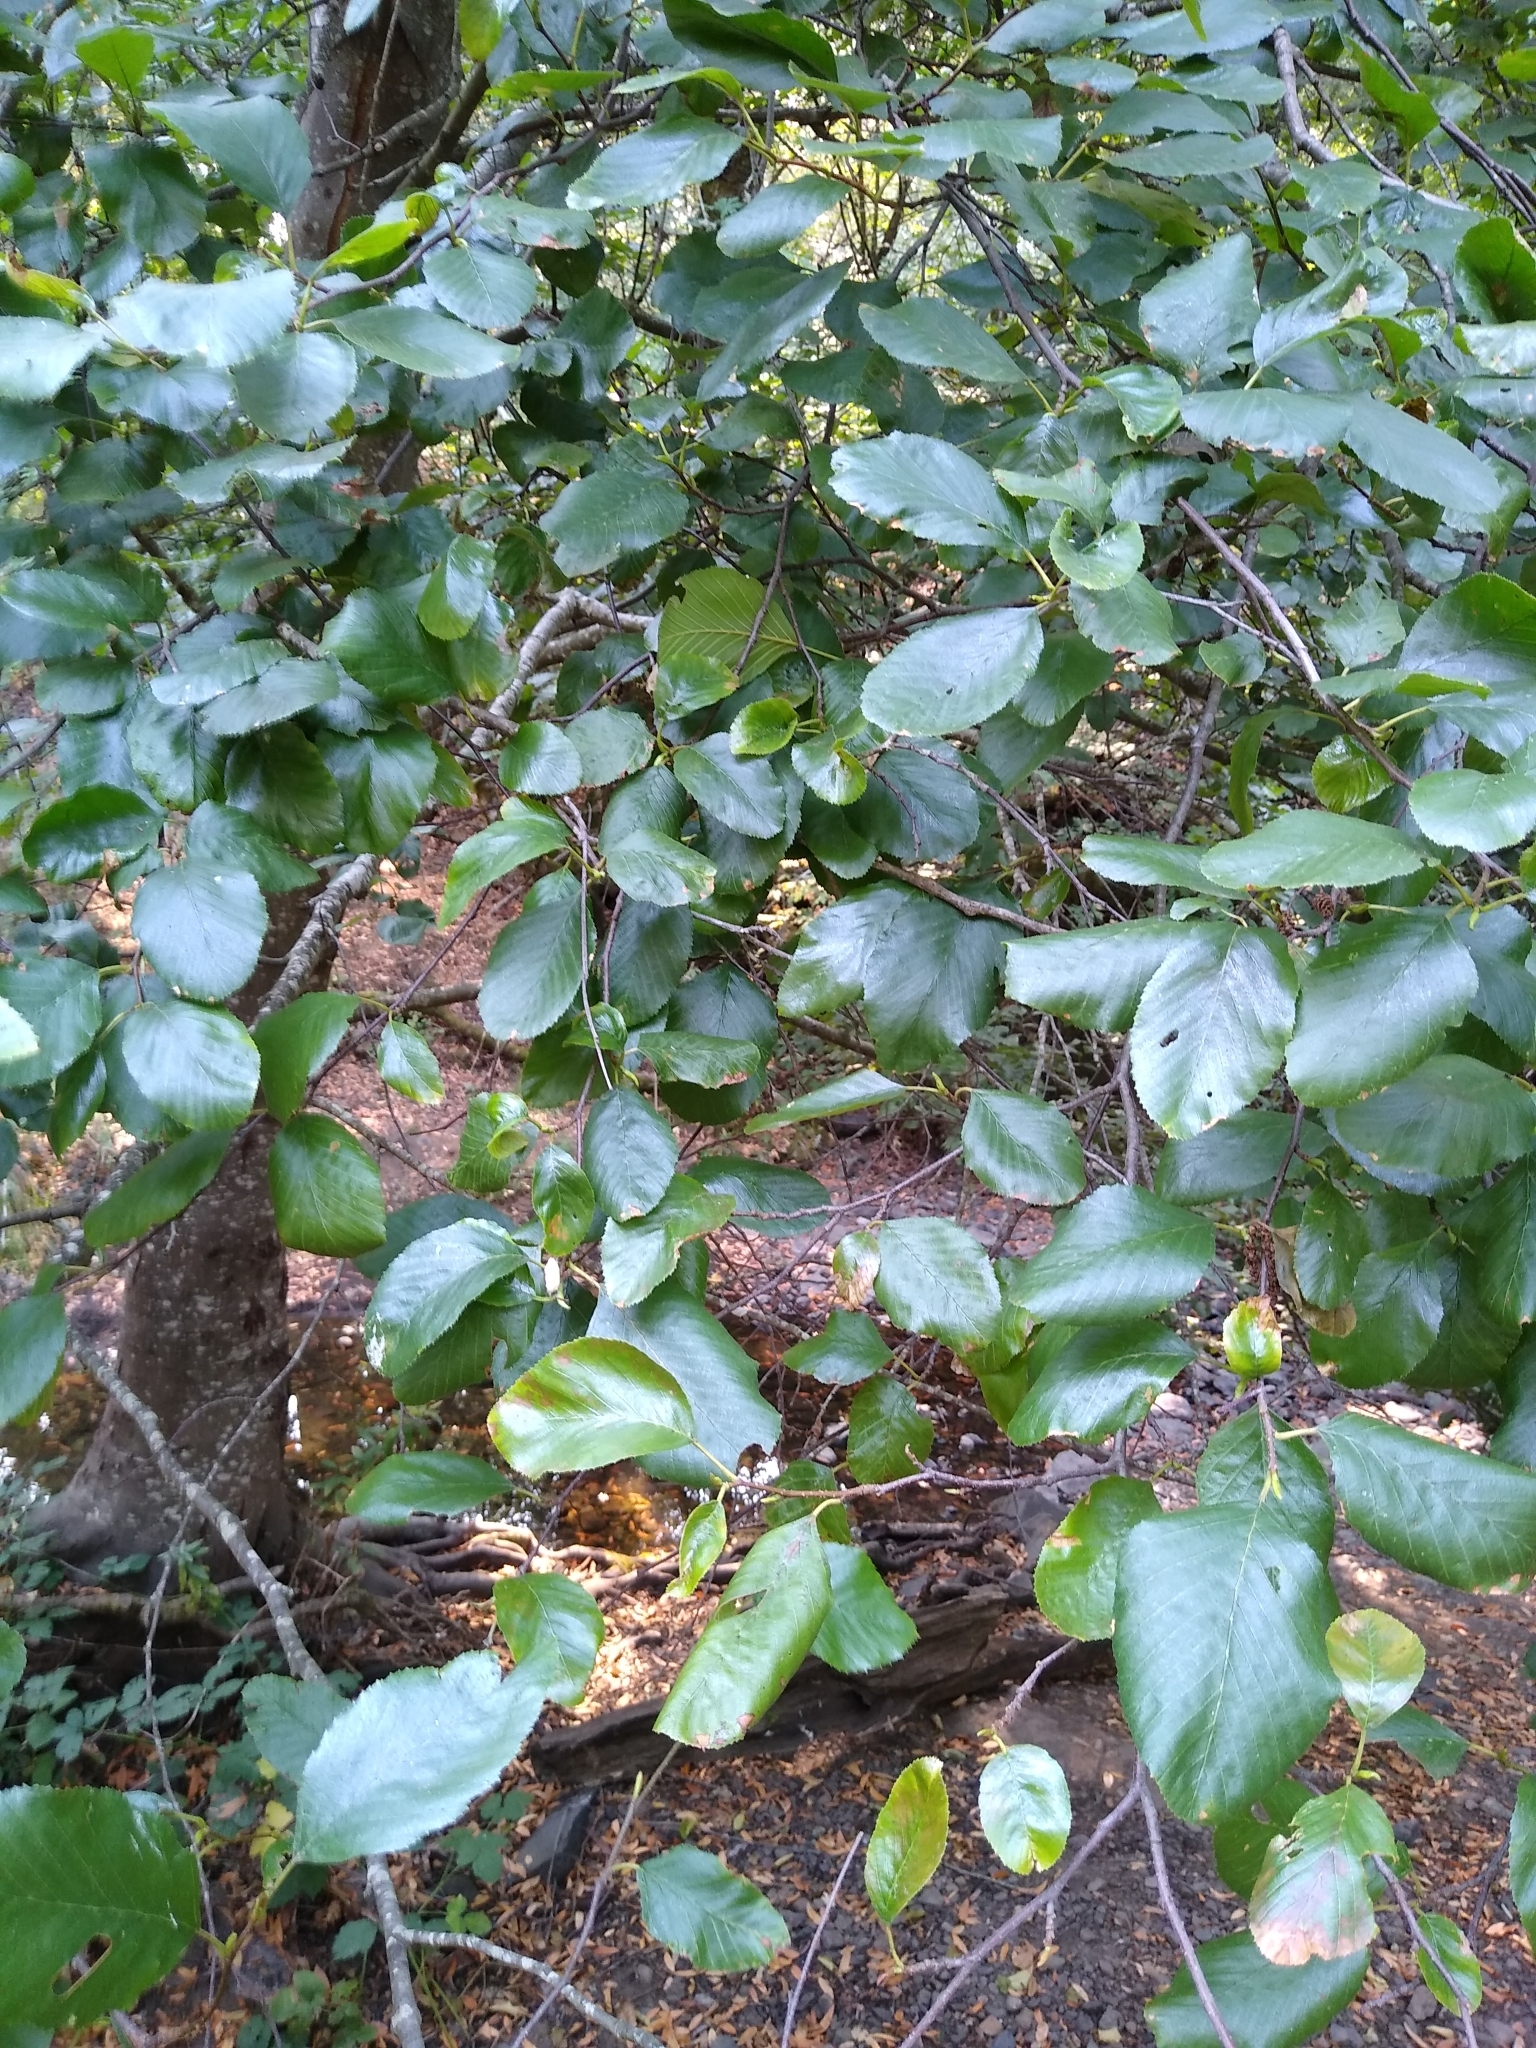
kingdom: Plantae
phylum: Tracheophyta
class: Magnoliopsida
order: Fagales
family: Betulaceae
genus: Alnus
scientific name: Alnus rhombifolia
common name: California alder
